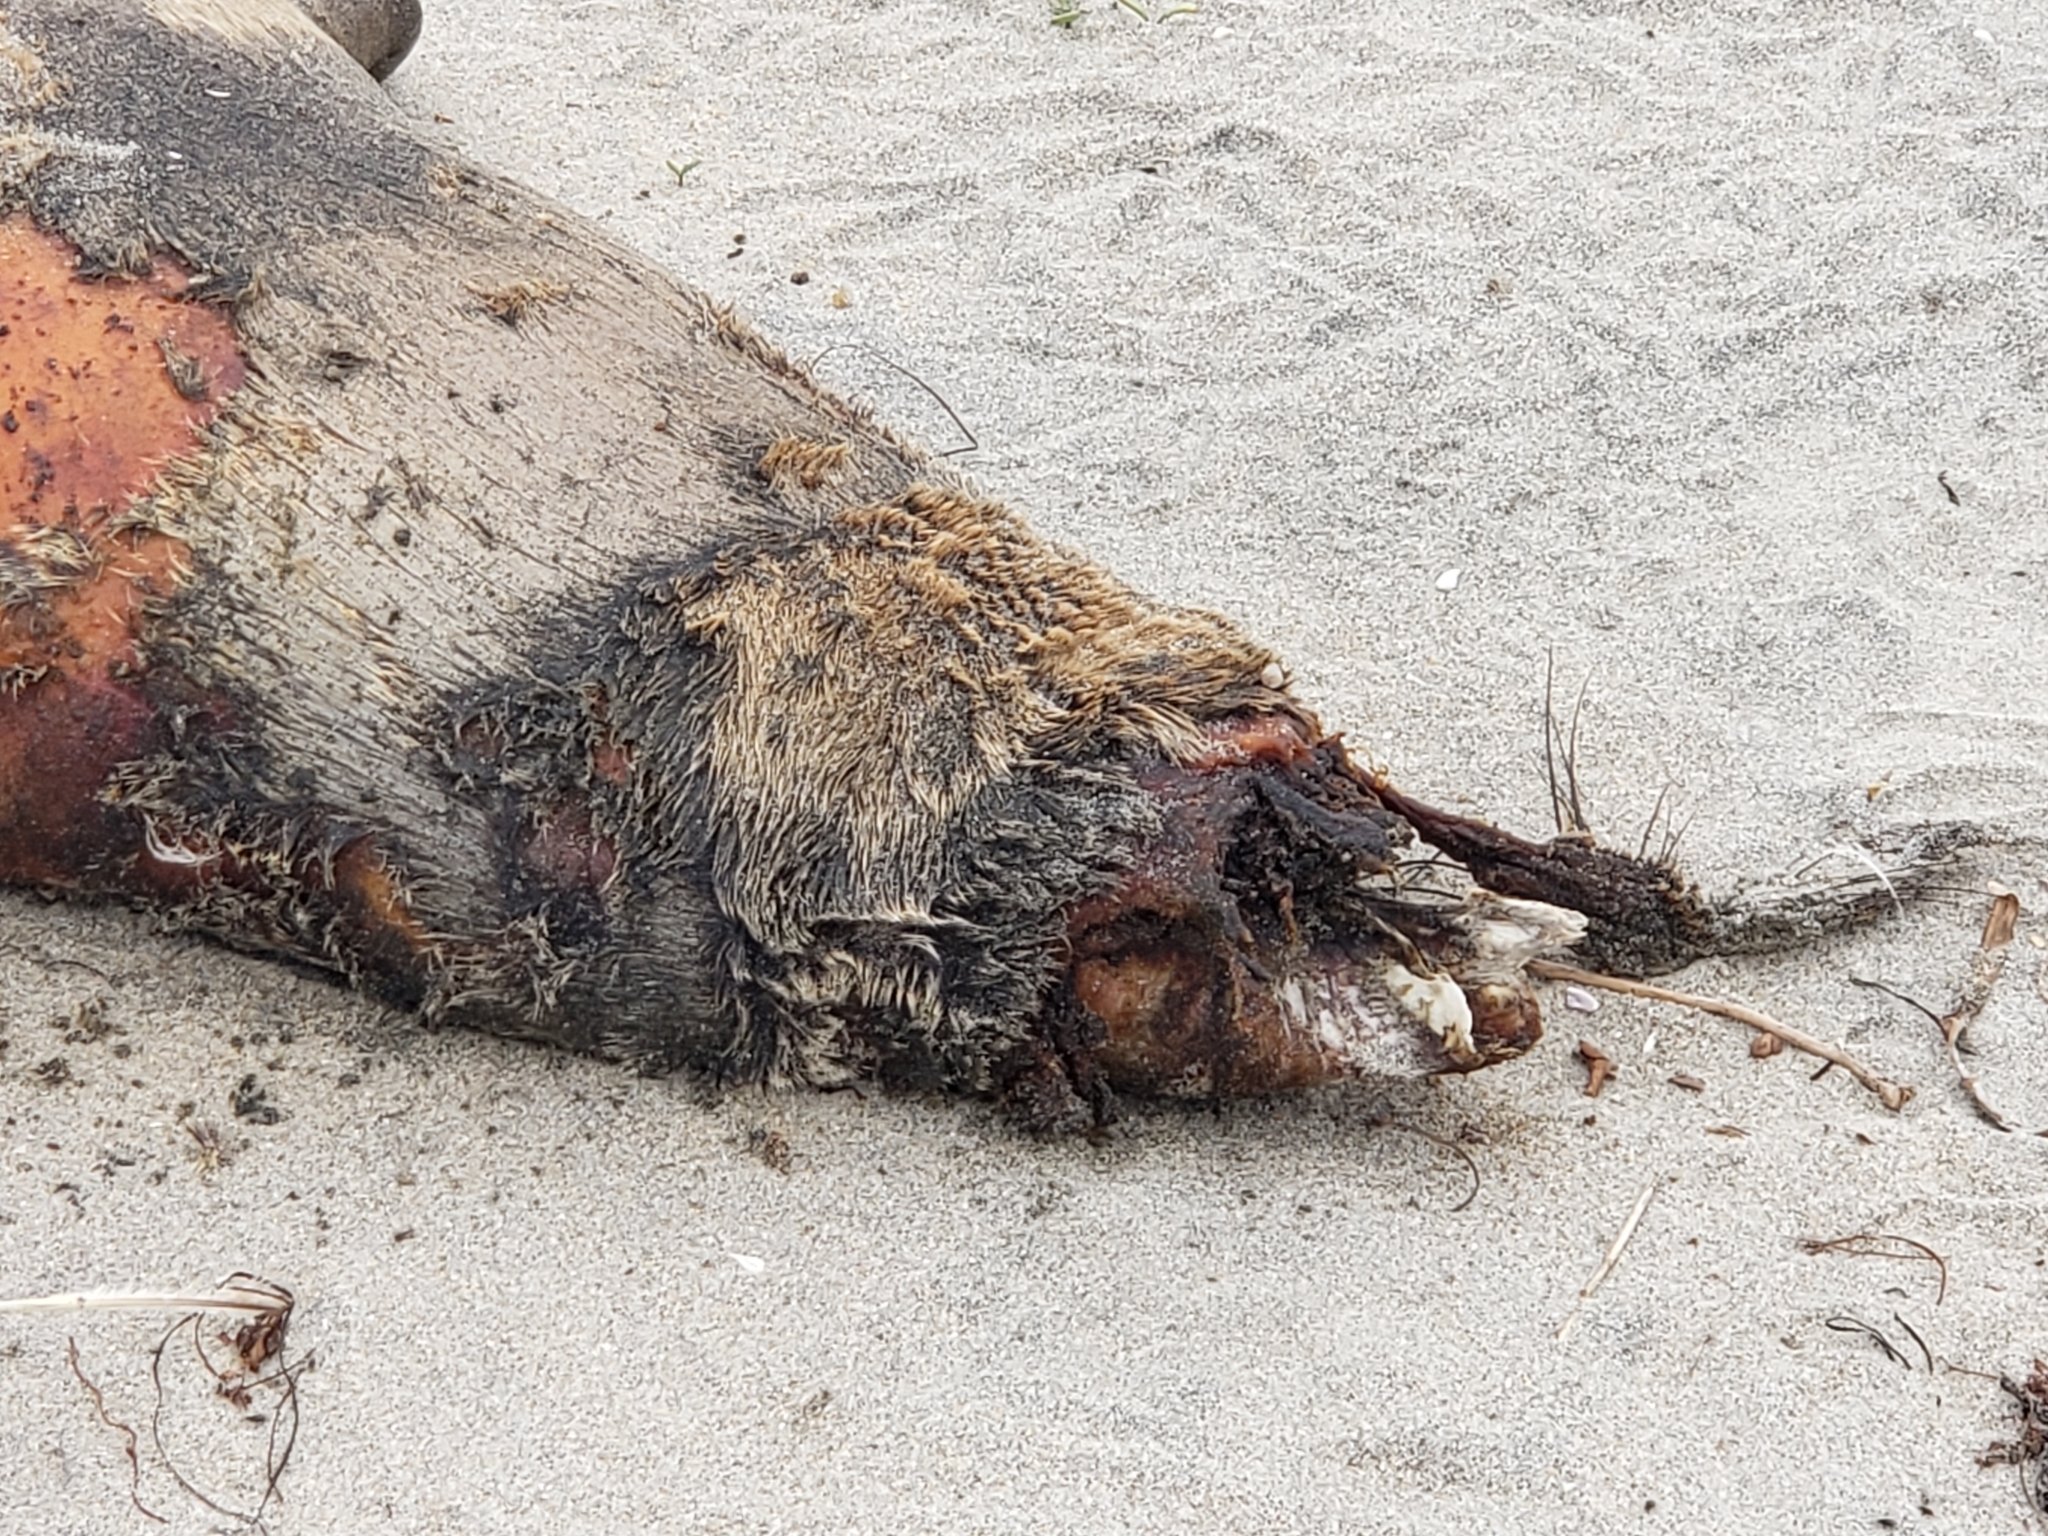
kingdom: Animalia
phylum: Chordata
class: Mammalia
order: Carnivora
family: Otariidae
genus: Zalophus
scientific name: Zalophus californianus
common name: California sea lion
